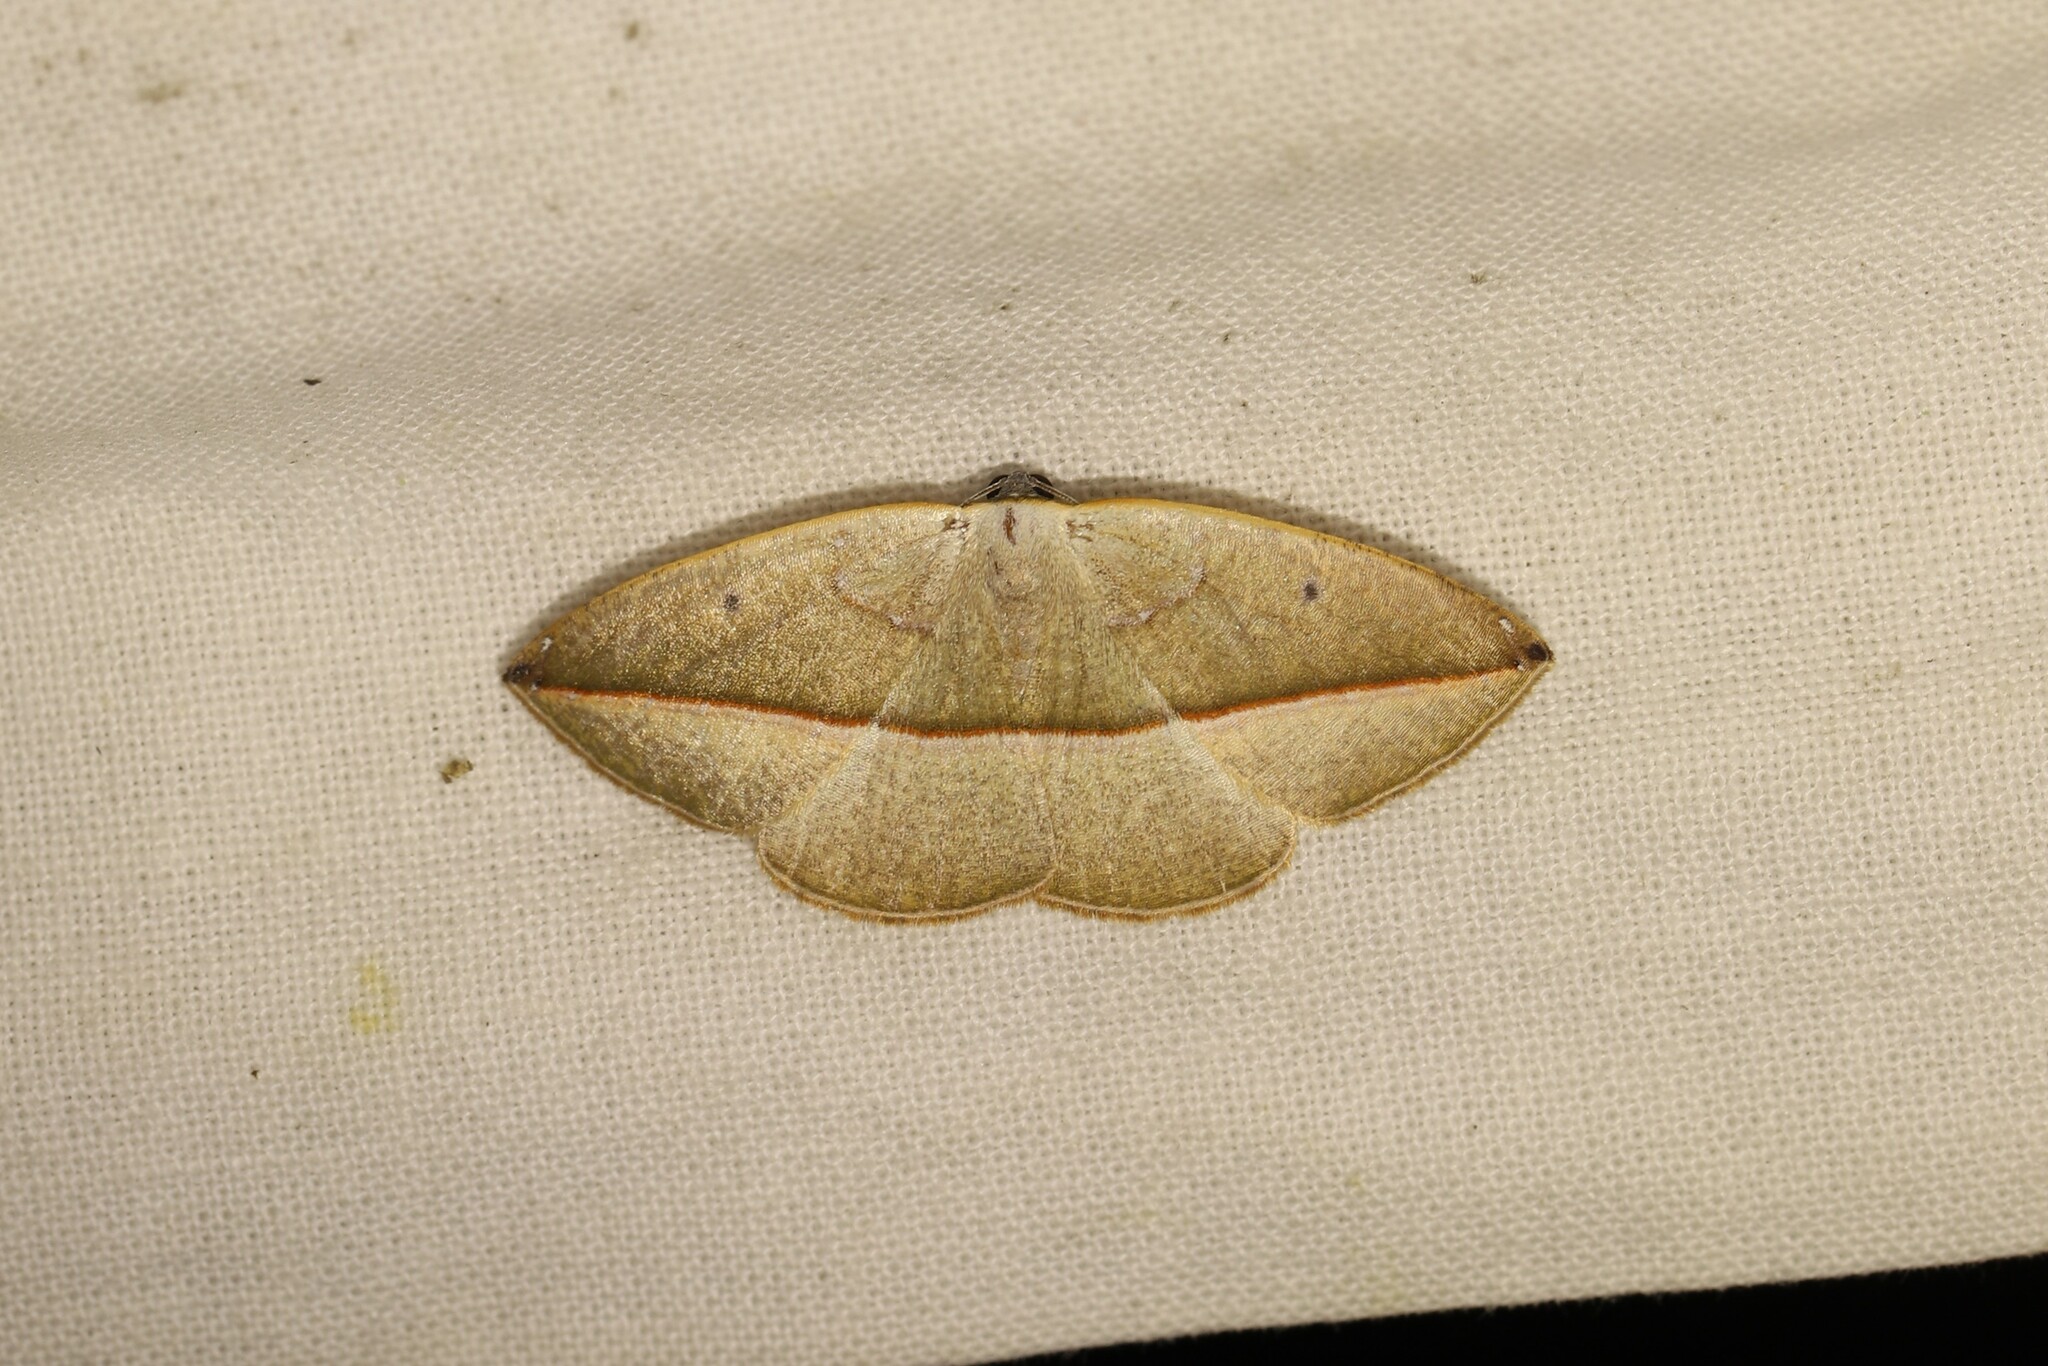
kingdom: Animalia
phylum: Arthropoda
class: Insecta
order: Lepidoptera
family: Geometridae
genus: Cartellodes
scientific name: Cartellodes levis
